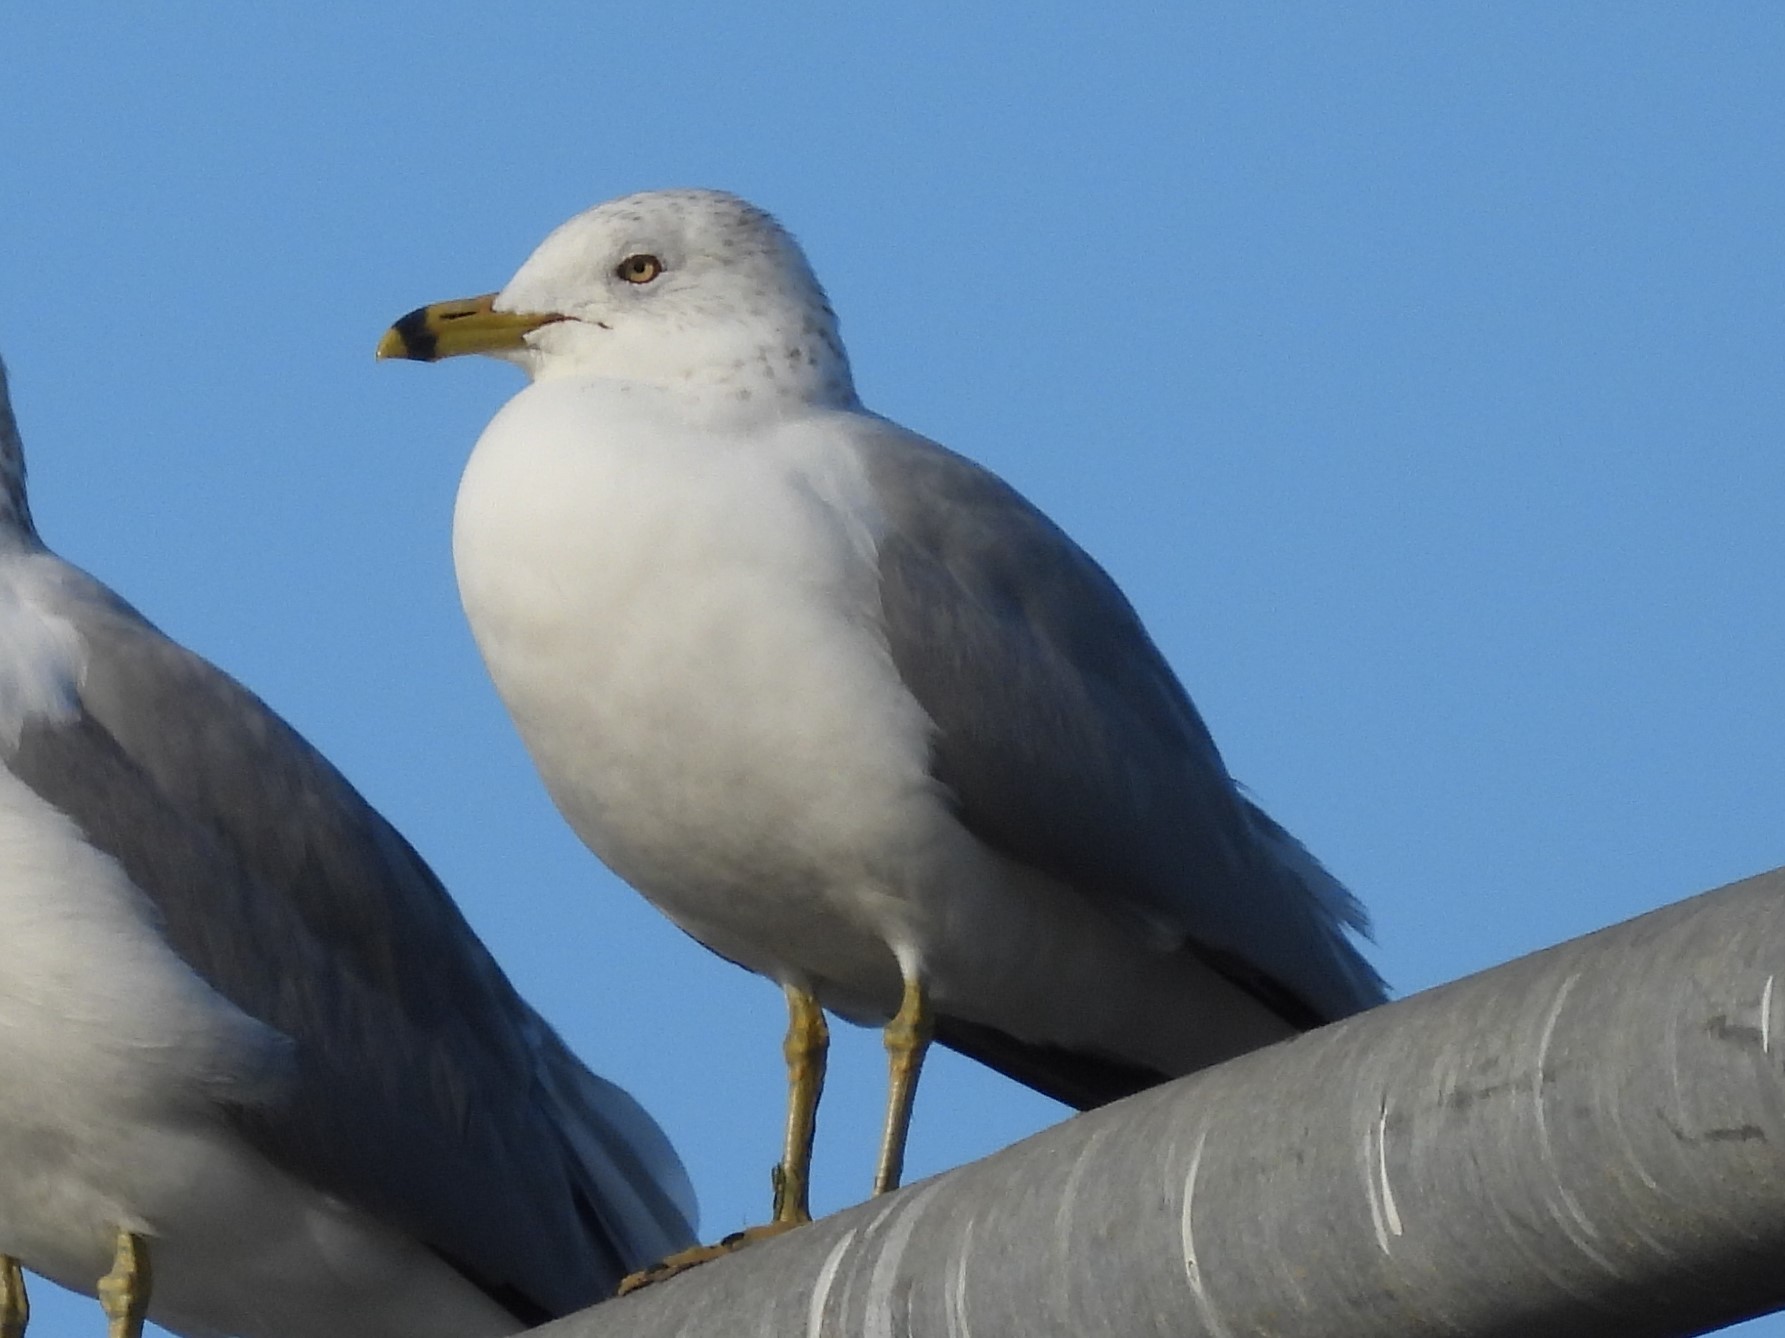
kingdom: Animalia
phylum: Chordata
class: Aves
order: Charadriiformes
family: Laridae
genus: Larus
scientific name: Larus delawarensis
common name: Ring-billed gull
